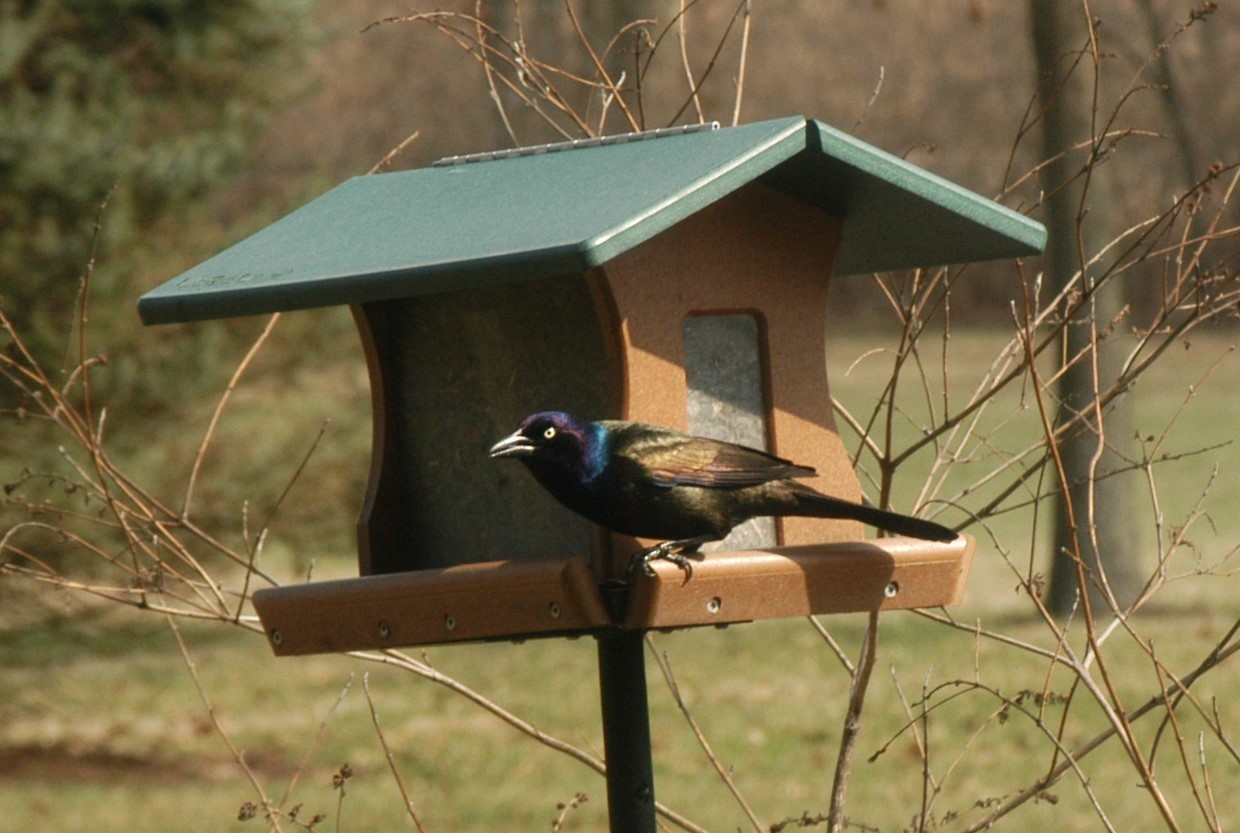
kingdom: Animalia
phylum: Chordata
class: Aves
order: Passeriformes
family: Icteridae
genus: Quiscalus
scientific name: Quiscalus quiscula
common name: Common grackle
